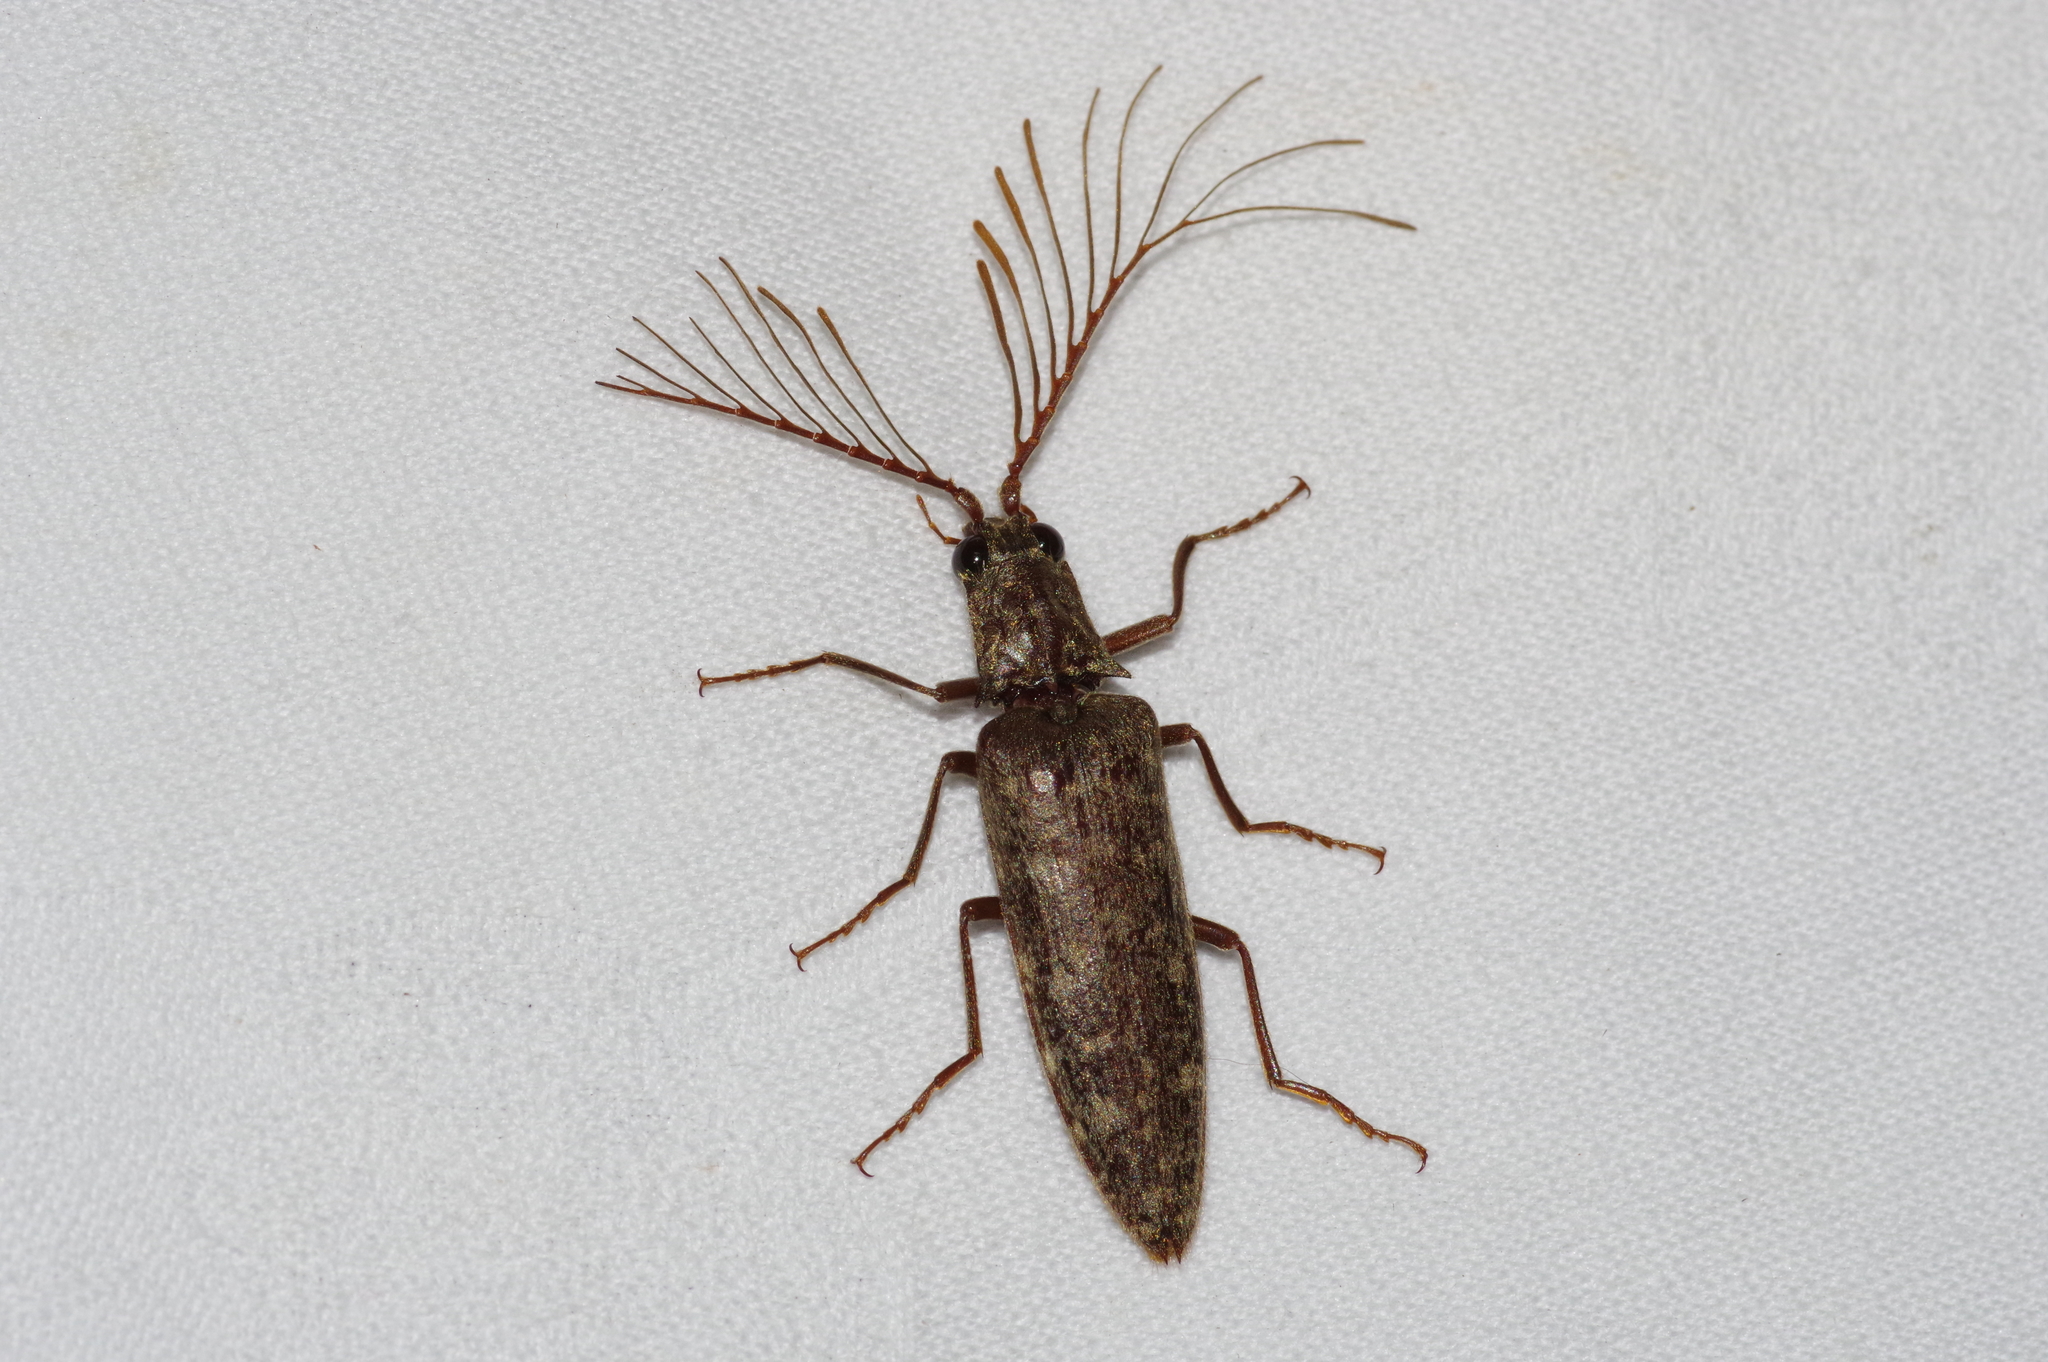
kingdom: Animalia
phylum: Arthropoda
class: Insecta
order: Coleoptera
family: Elateridae
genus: Pectocera
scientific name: Pectocera yonaha
